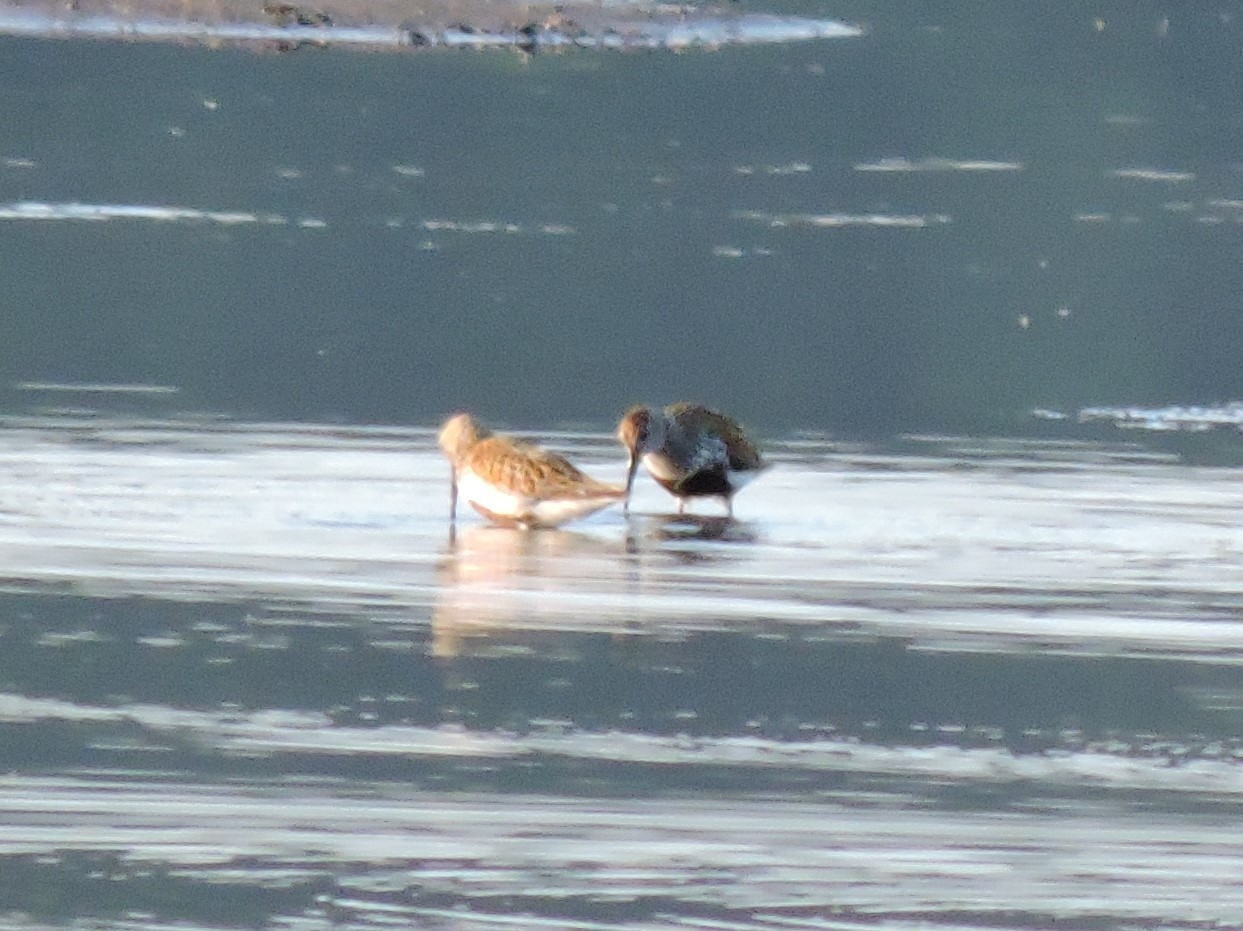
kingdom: Animalia
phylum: Chordata
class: Aves
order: Charadriiformes
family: Scolopacidae
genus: Calidris
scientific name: Calidris alpina
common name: Dunlin
